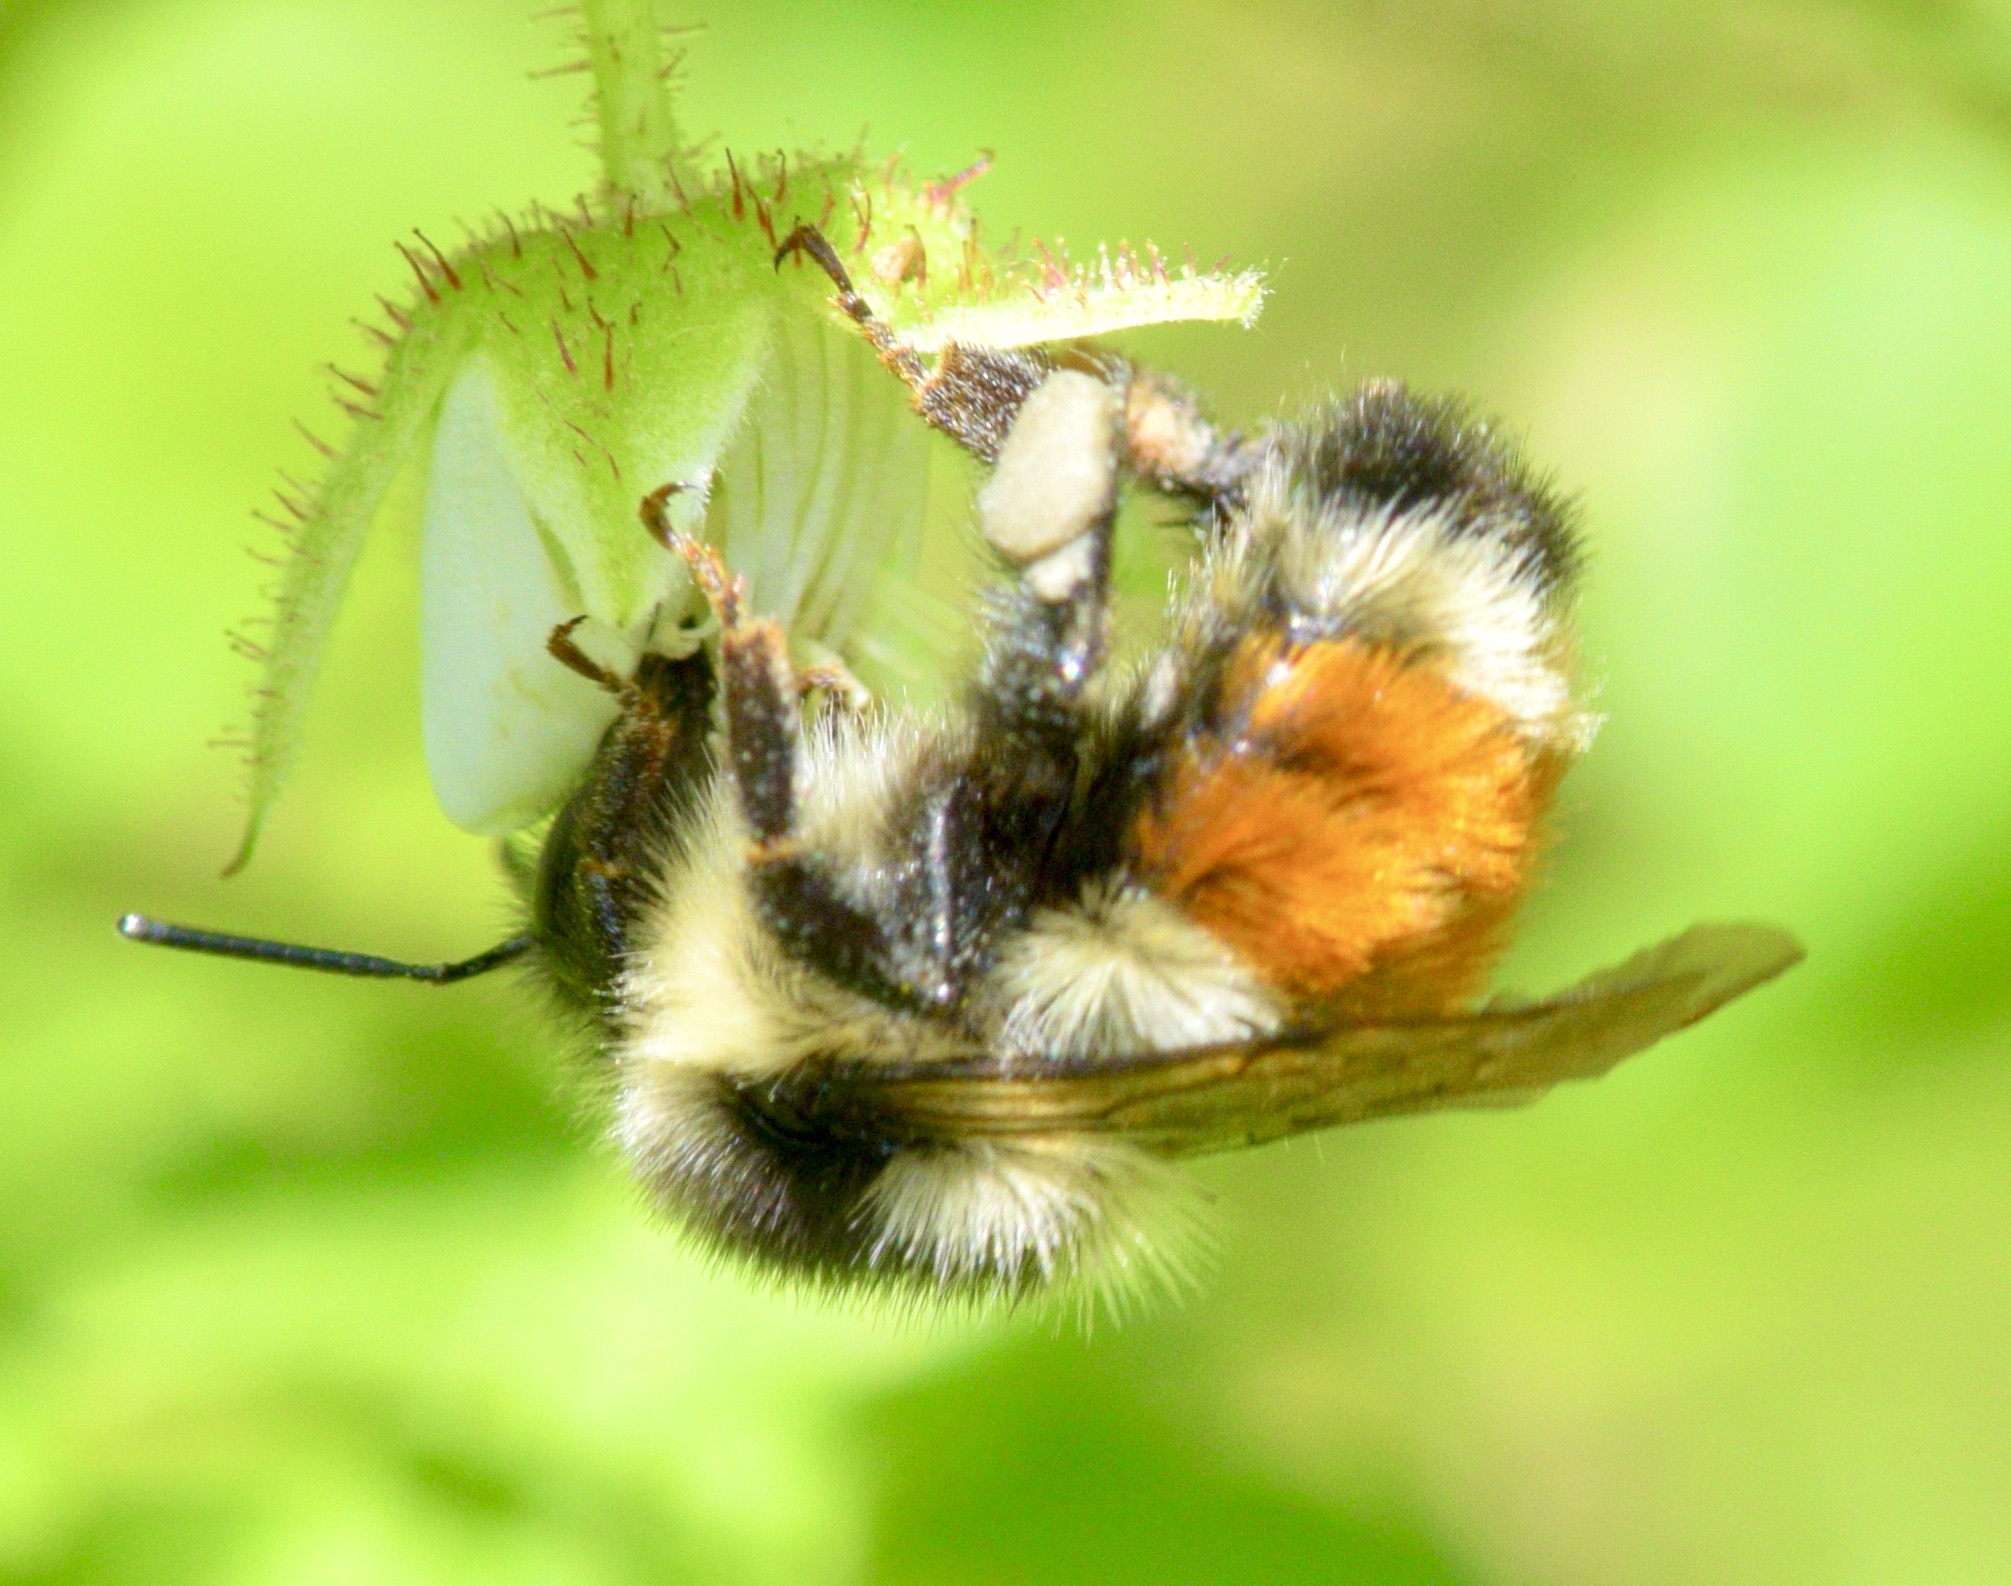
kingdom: Animalia
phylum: Arthropoda
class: Insecta
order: Hymenoptera
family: Apidae
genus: Bombus
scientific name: Bombus ternarius
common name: Tri-colored bumble bee
